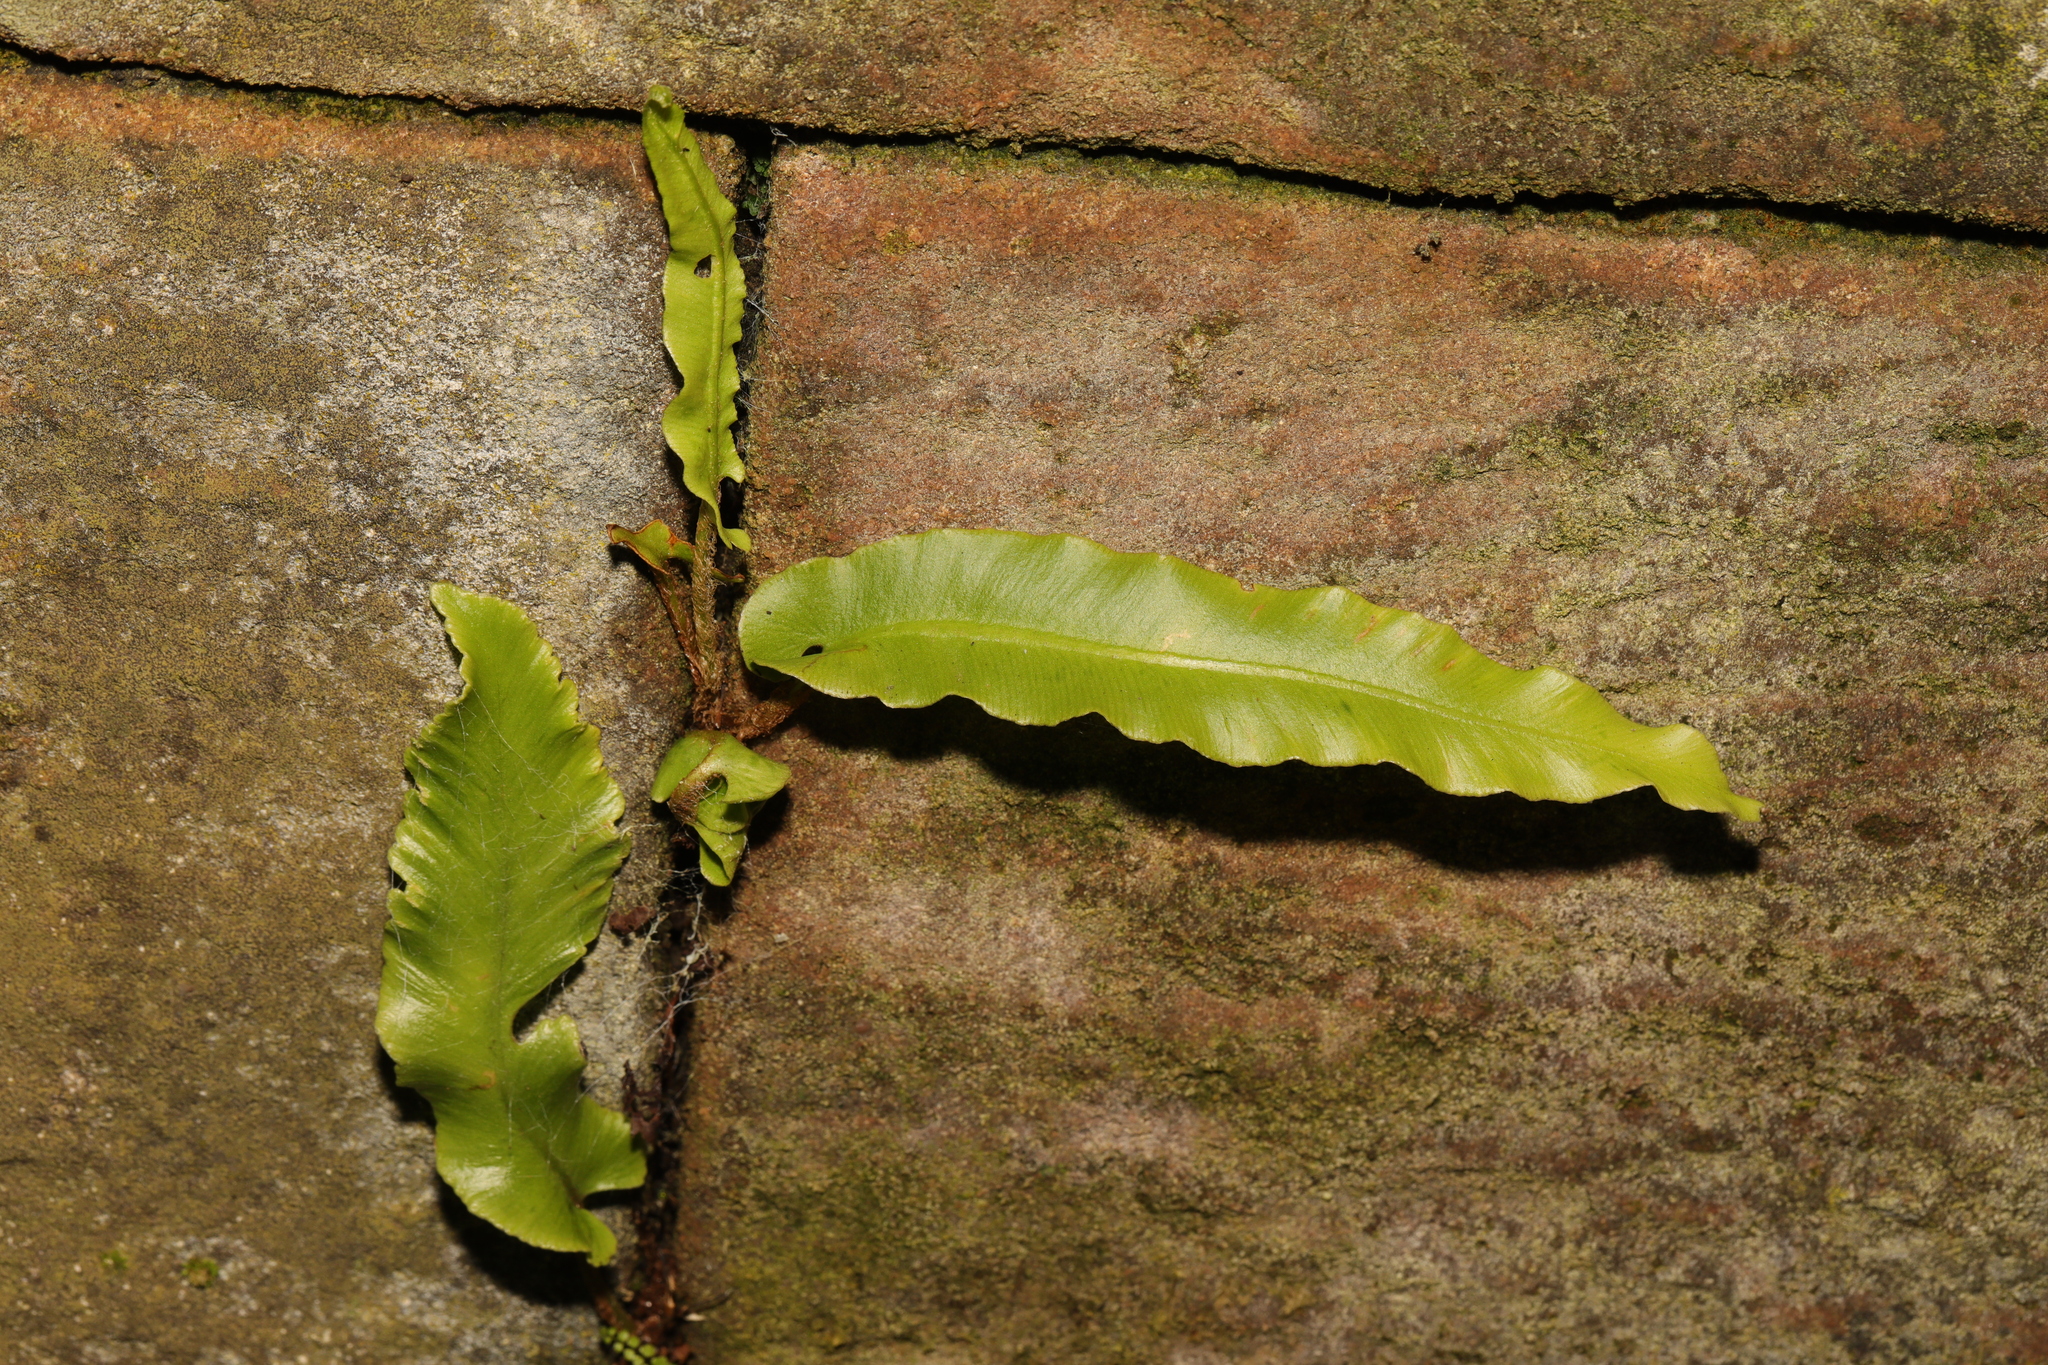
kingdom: Plantae
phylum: Tracheophyta
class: Polypodiopsida
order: Polypodiales
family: Aspleniaceae
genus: Asplenium
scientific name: Asplenium scolopendrium
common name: Hart's-tongue fern
